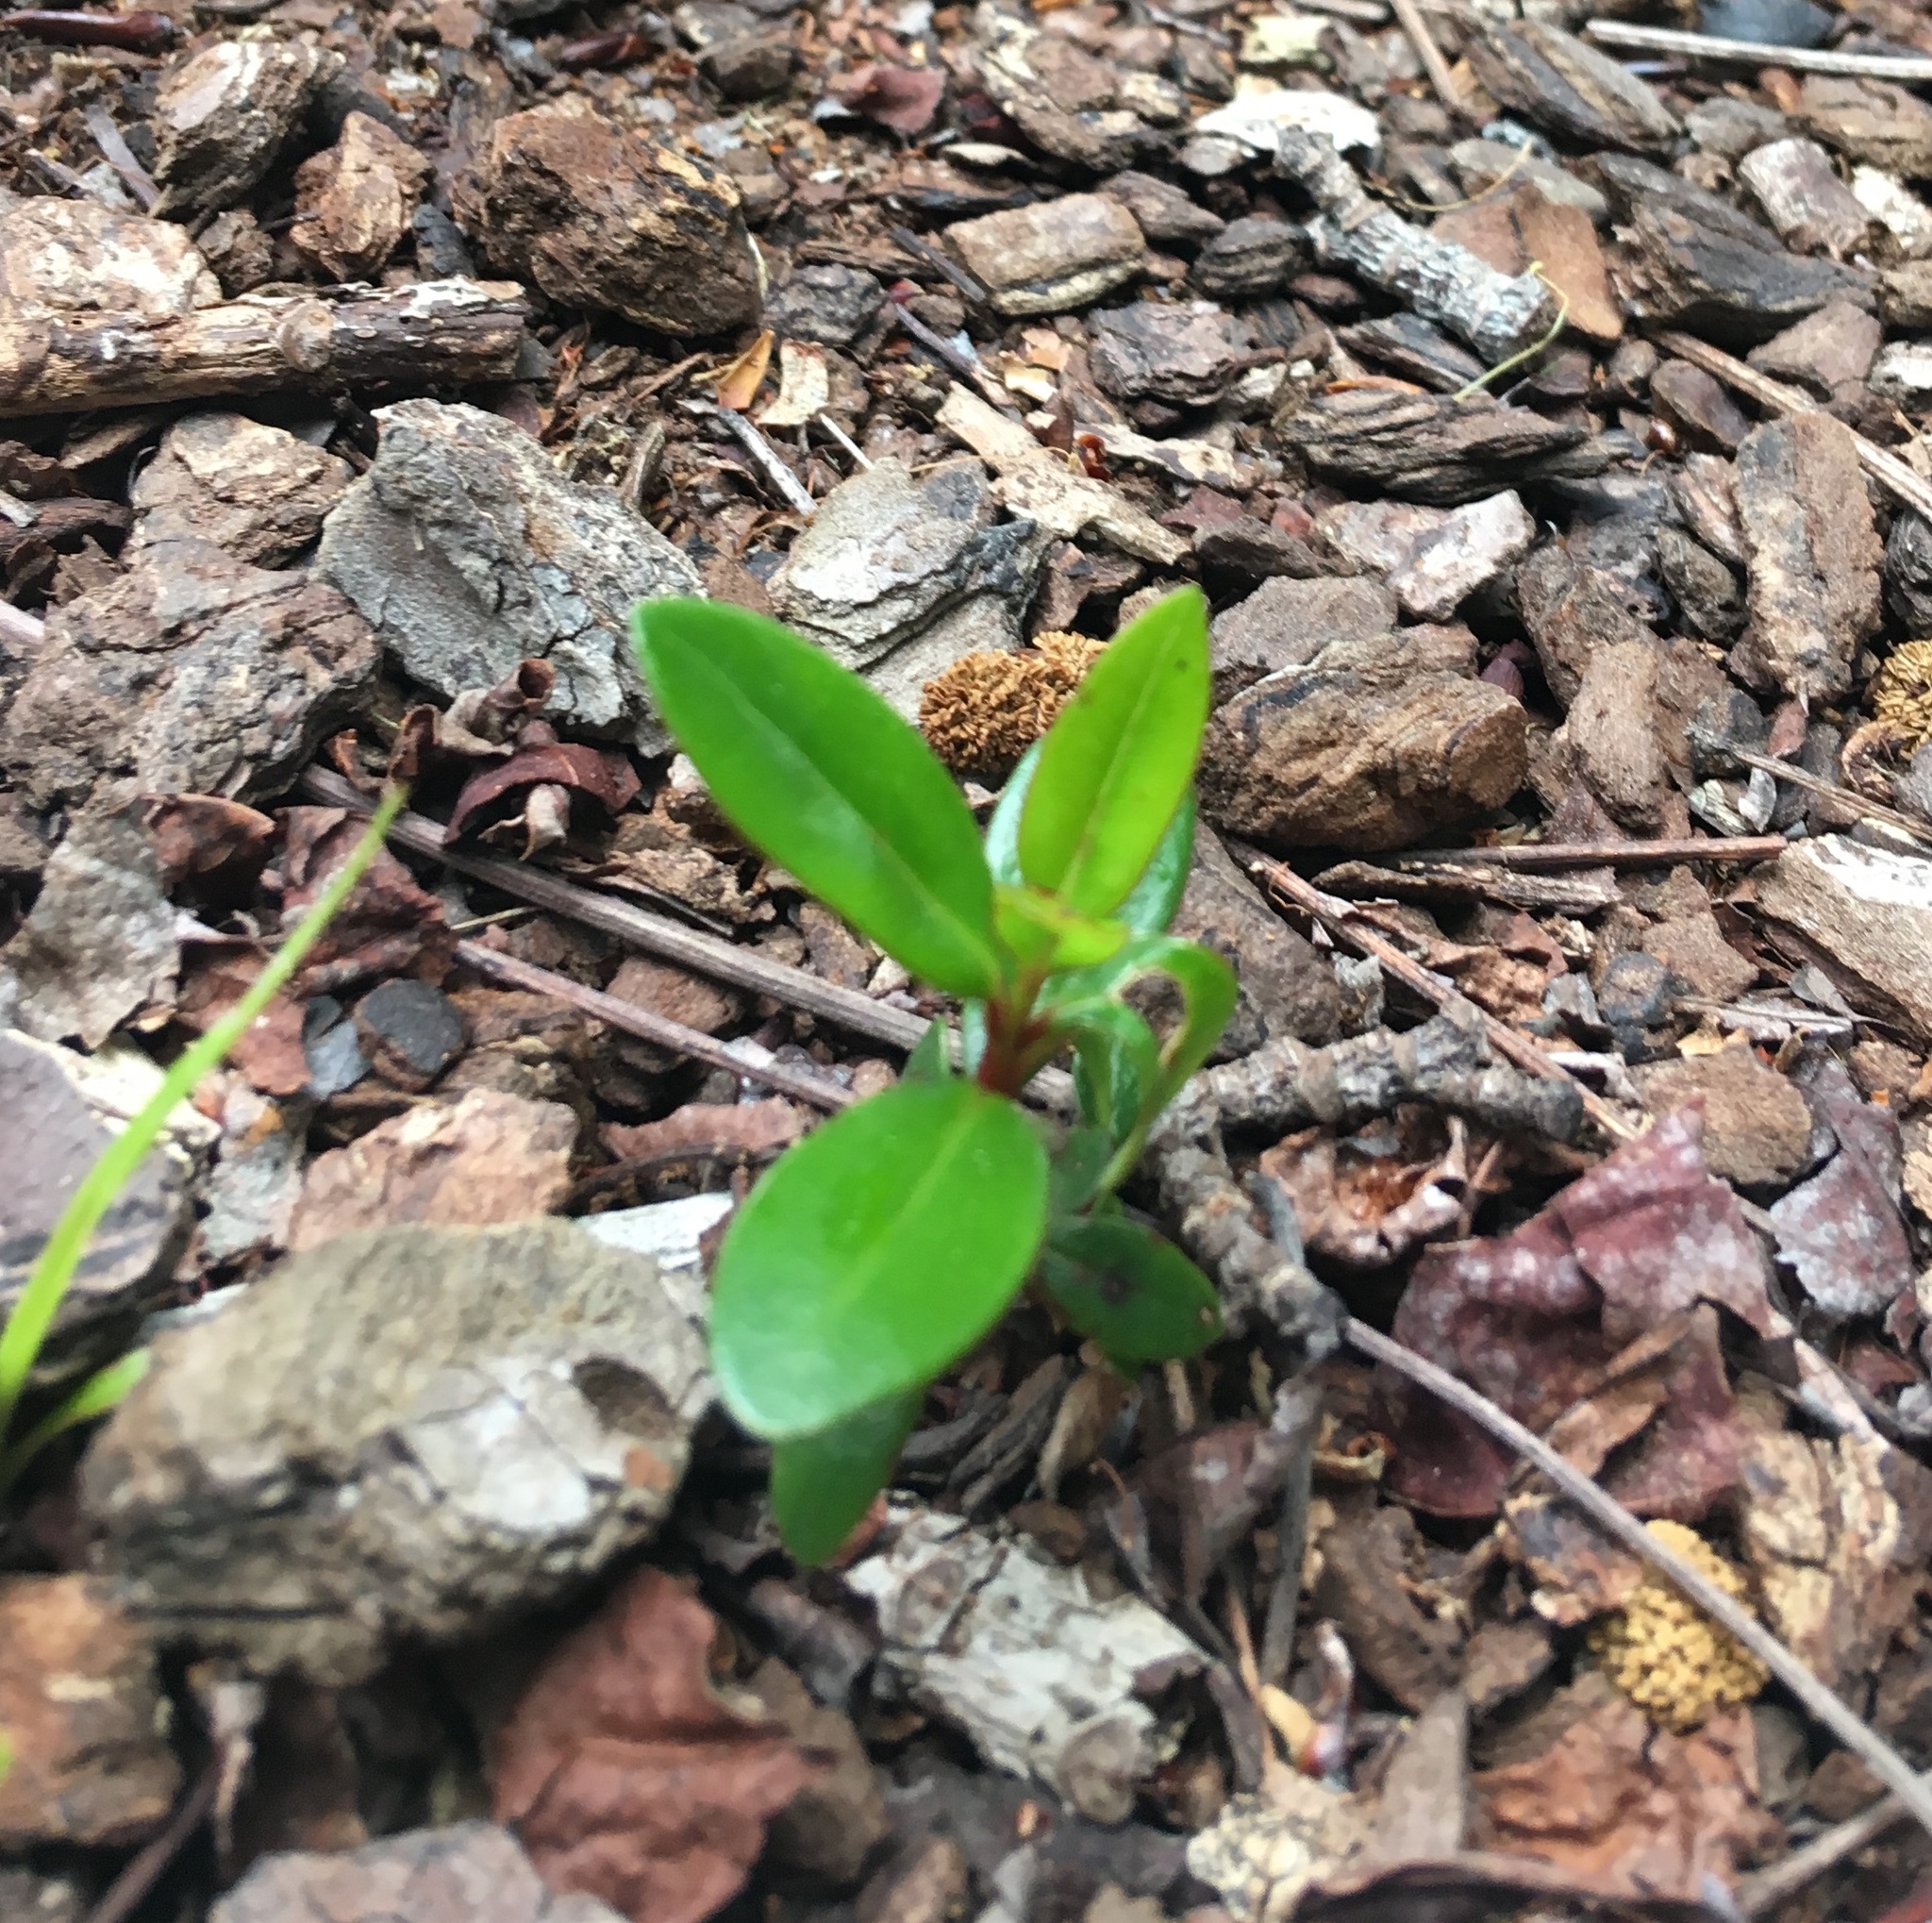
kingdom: Plantae
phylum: Tracheophyta
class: Magnoliopsida
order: Myrtales
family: Myrtaceae
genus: Metrosideros
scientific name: Metrosideros excelsa
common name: New zealand christmastree
